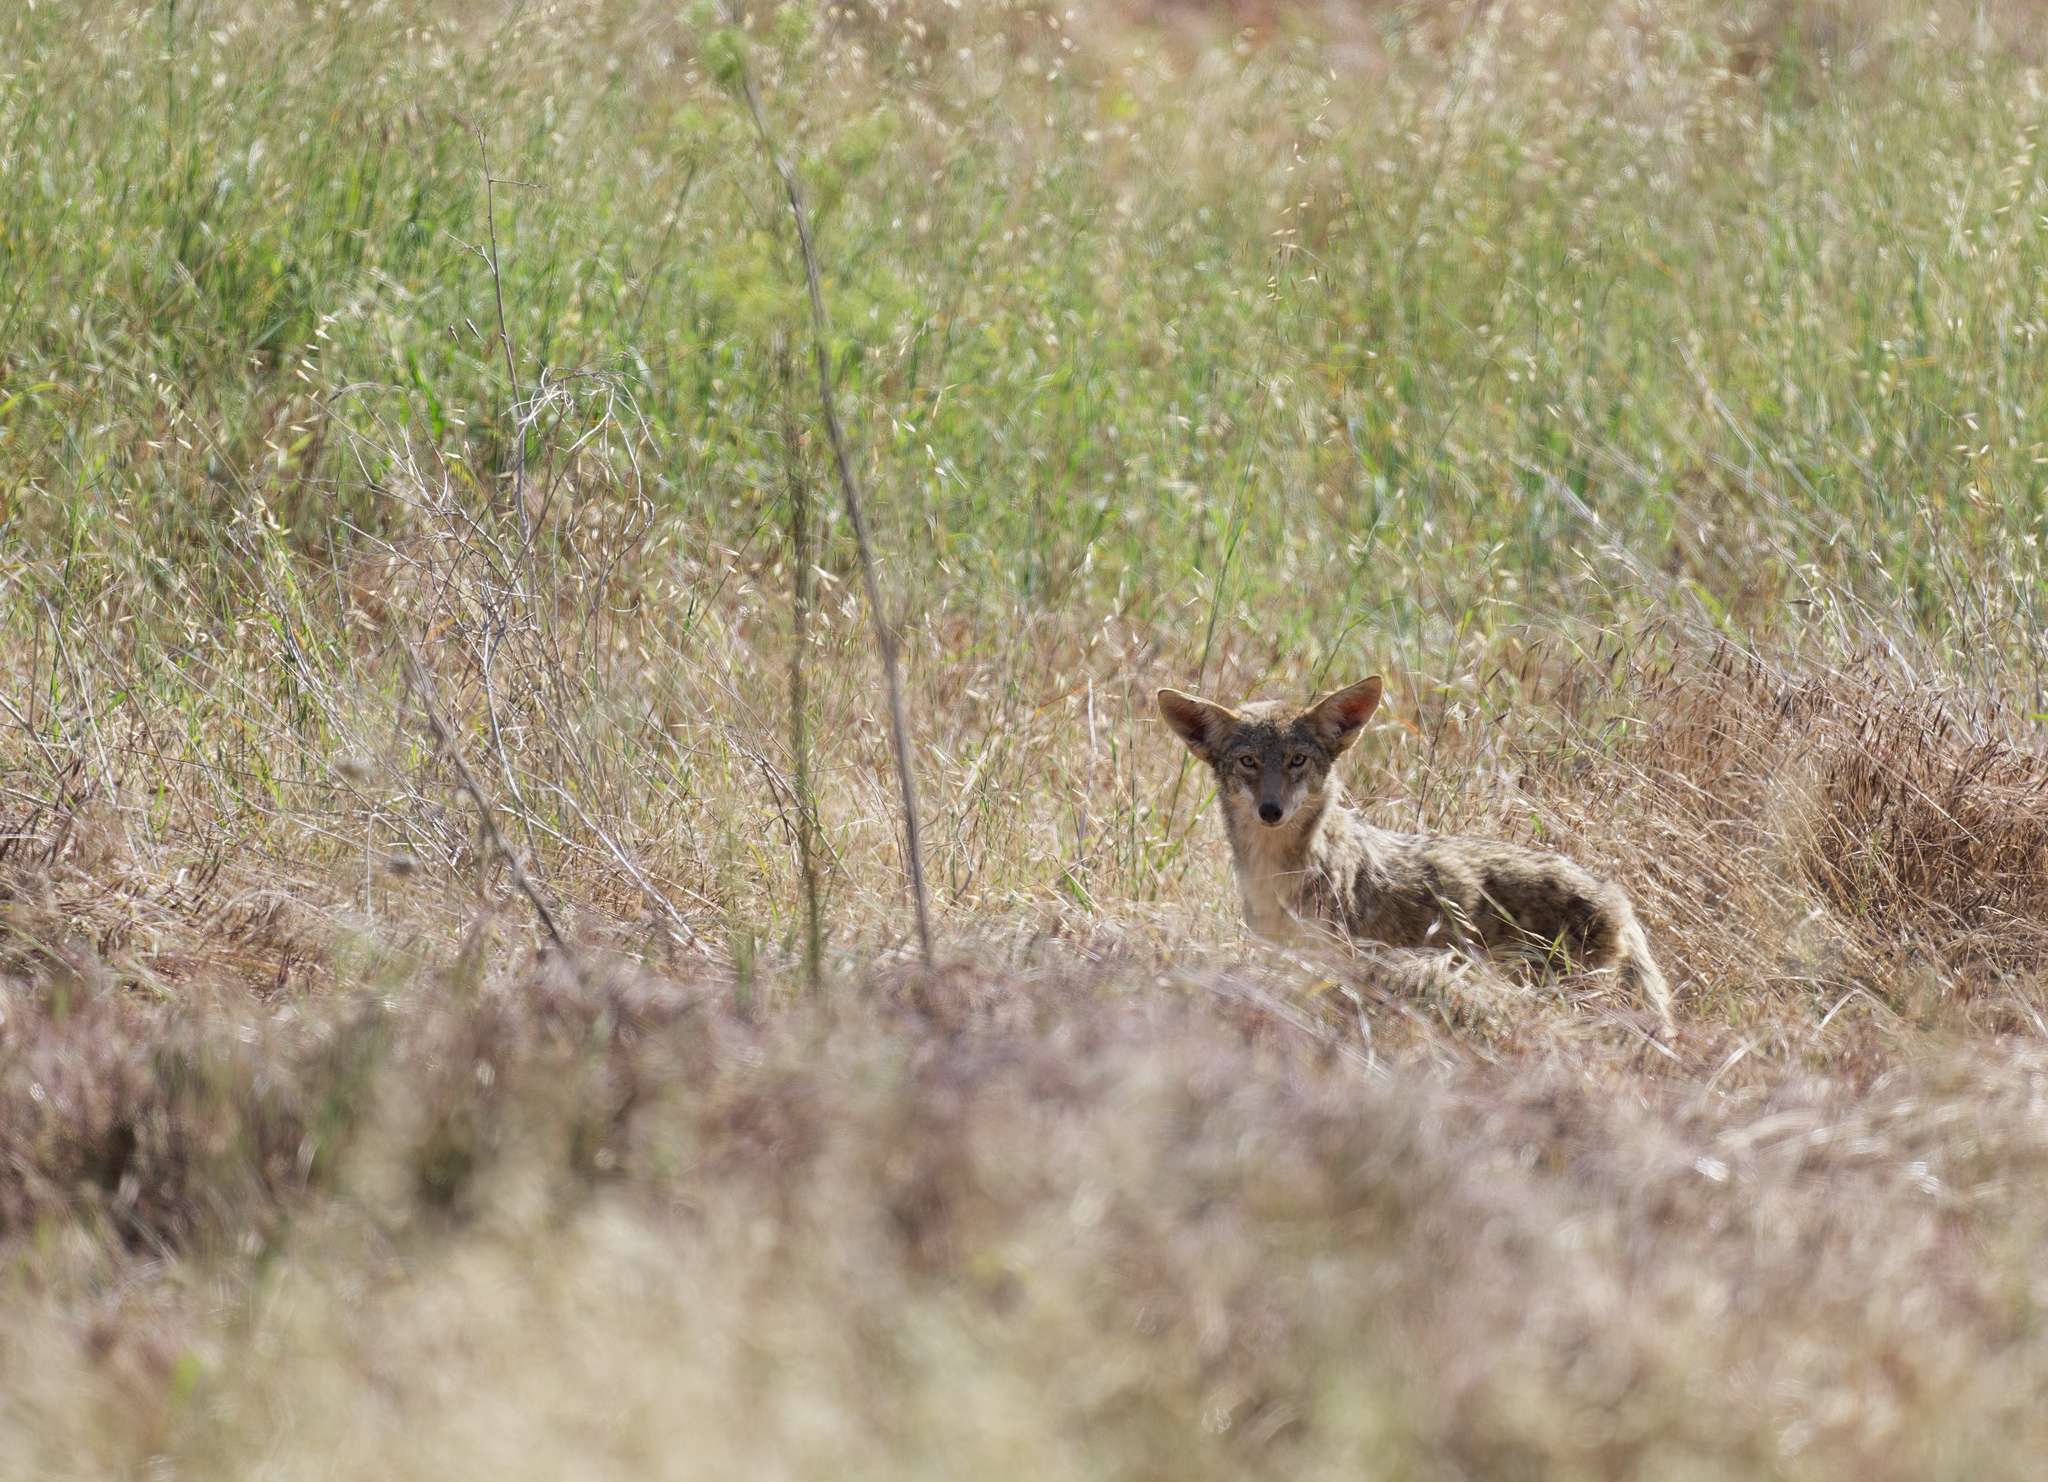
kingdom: Animalia
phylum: Chordata
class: Mammalia
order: Carnivora
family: Canidae
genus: Canis
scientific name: Canis latrans
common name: Coyote
